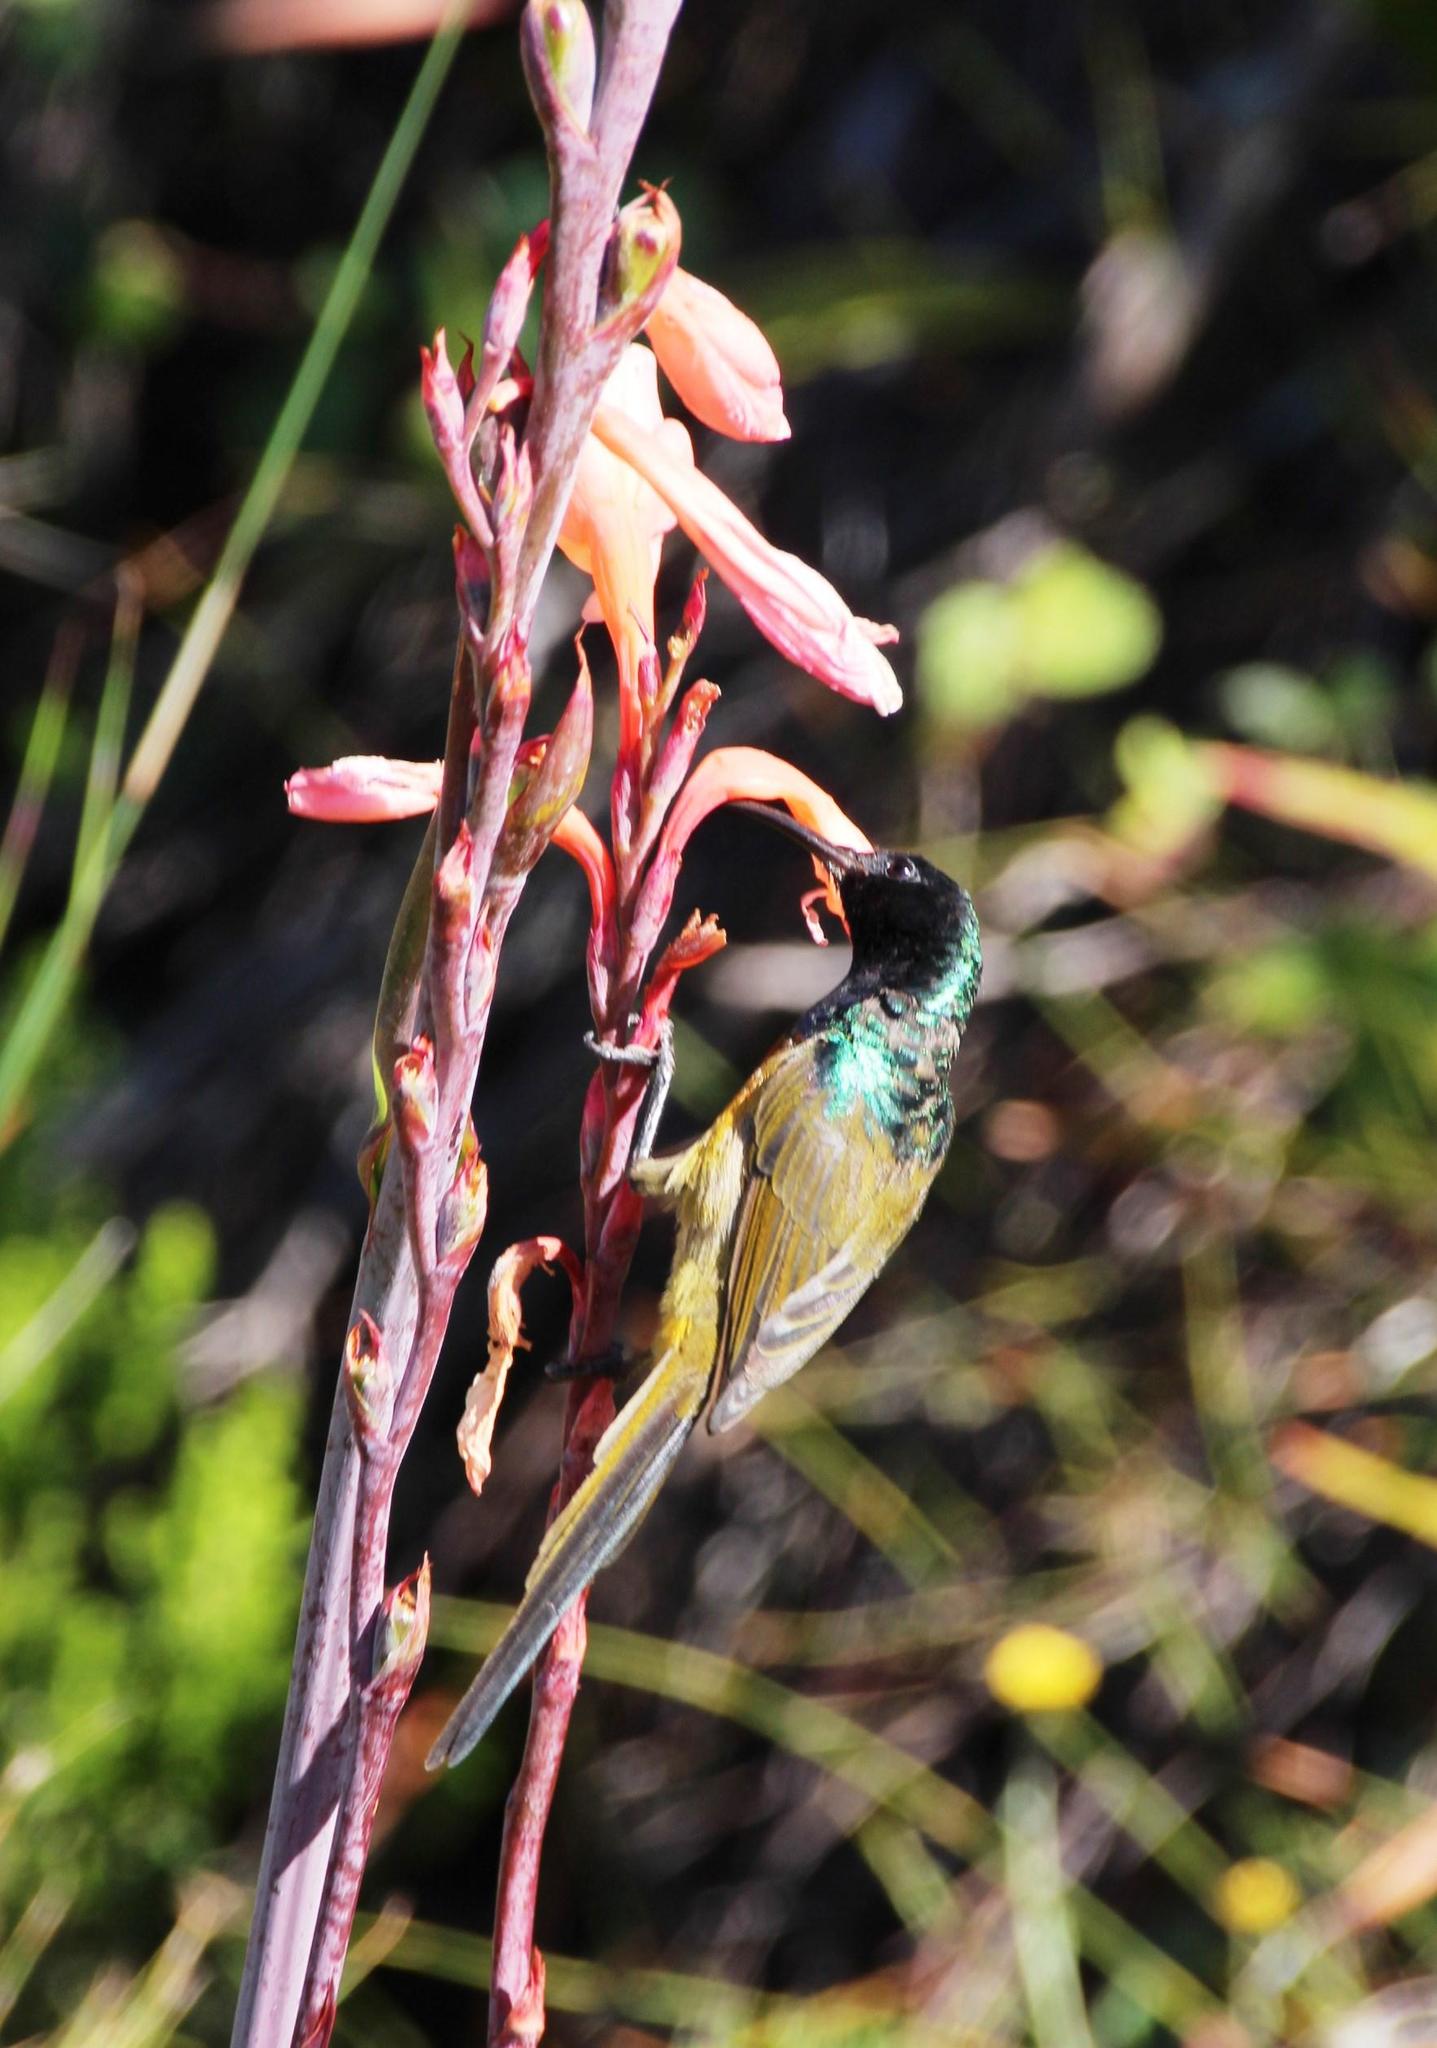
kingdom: Animalia
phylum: Chordata
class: Aves
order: Passeriformes
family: Nectariniidae
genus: Anthobaphes
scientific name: Anthobaphes violacea
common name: Orange-breasted sunbird
